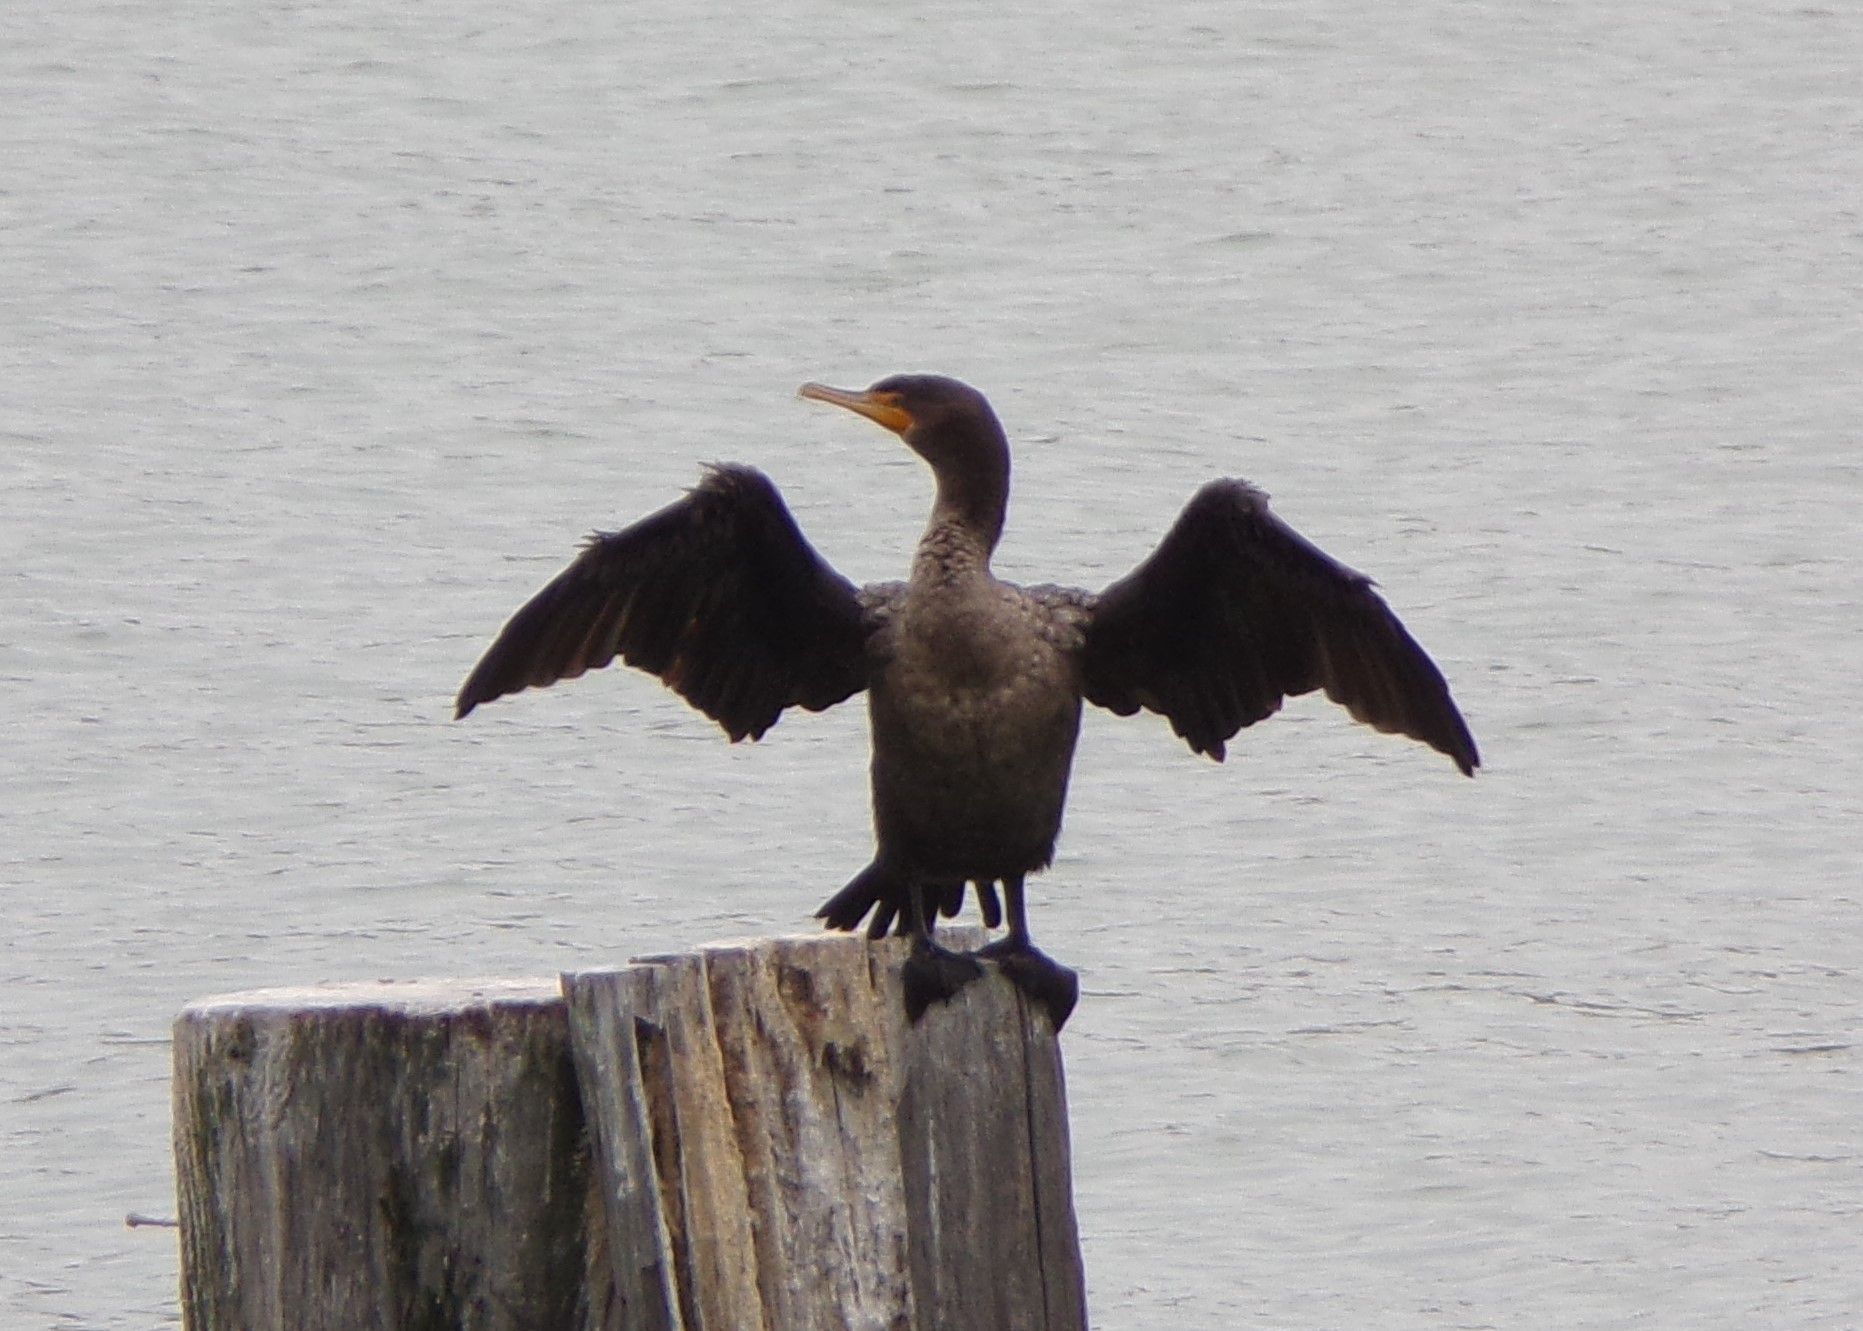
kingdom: Animalia
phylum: Chordata
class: Aves
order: Suliformes
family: Phalacrocoracidae
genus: Phalacrocorax
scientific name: Phalacrocorax auritus
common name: Double-crested cormorant
